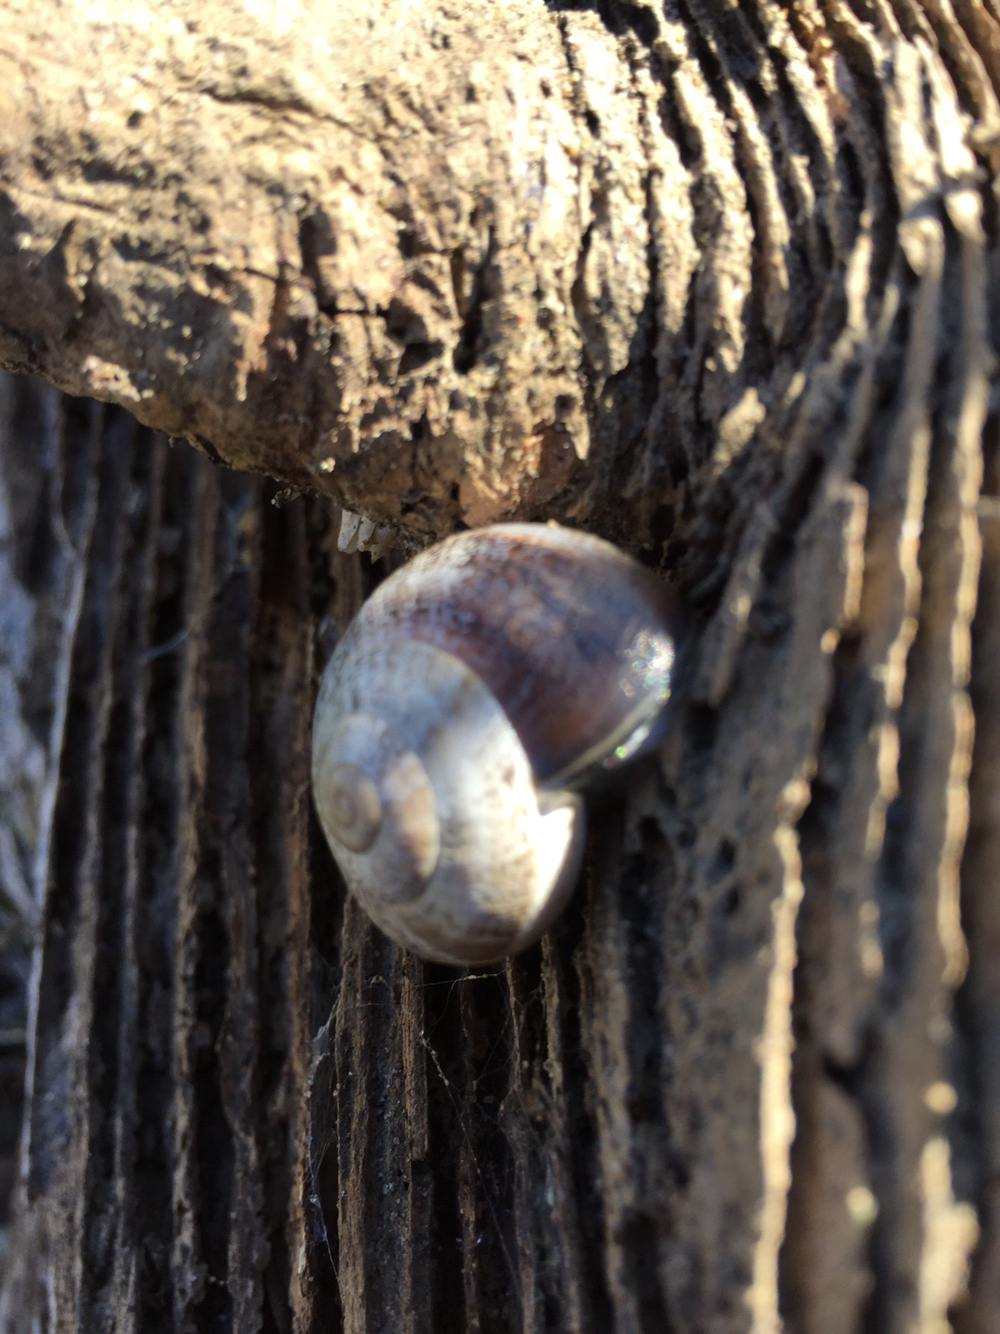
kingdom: Animalia
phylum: Mollusca
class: Gastropoda
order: Stylommatophora
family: Helicidae
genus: Otala
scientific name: Otala lactea
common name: Milk snail
